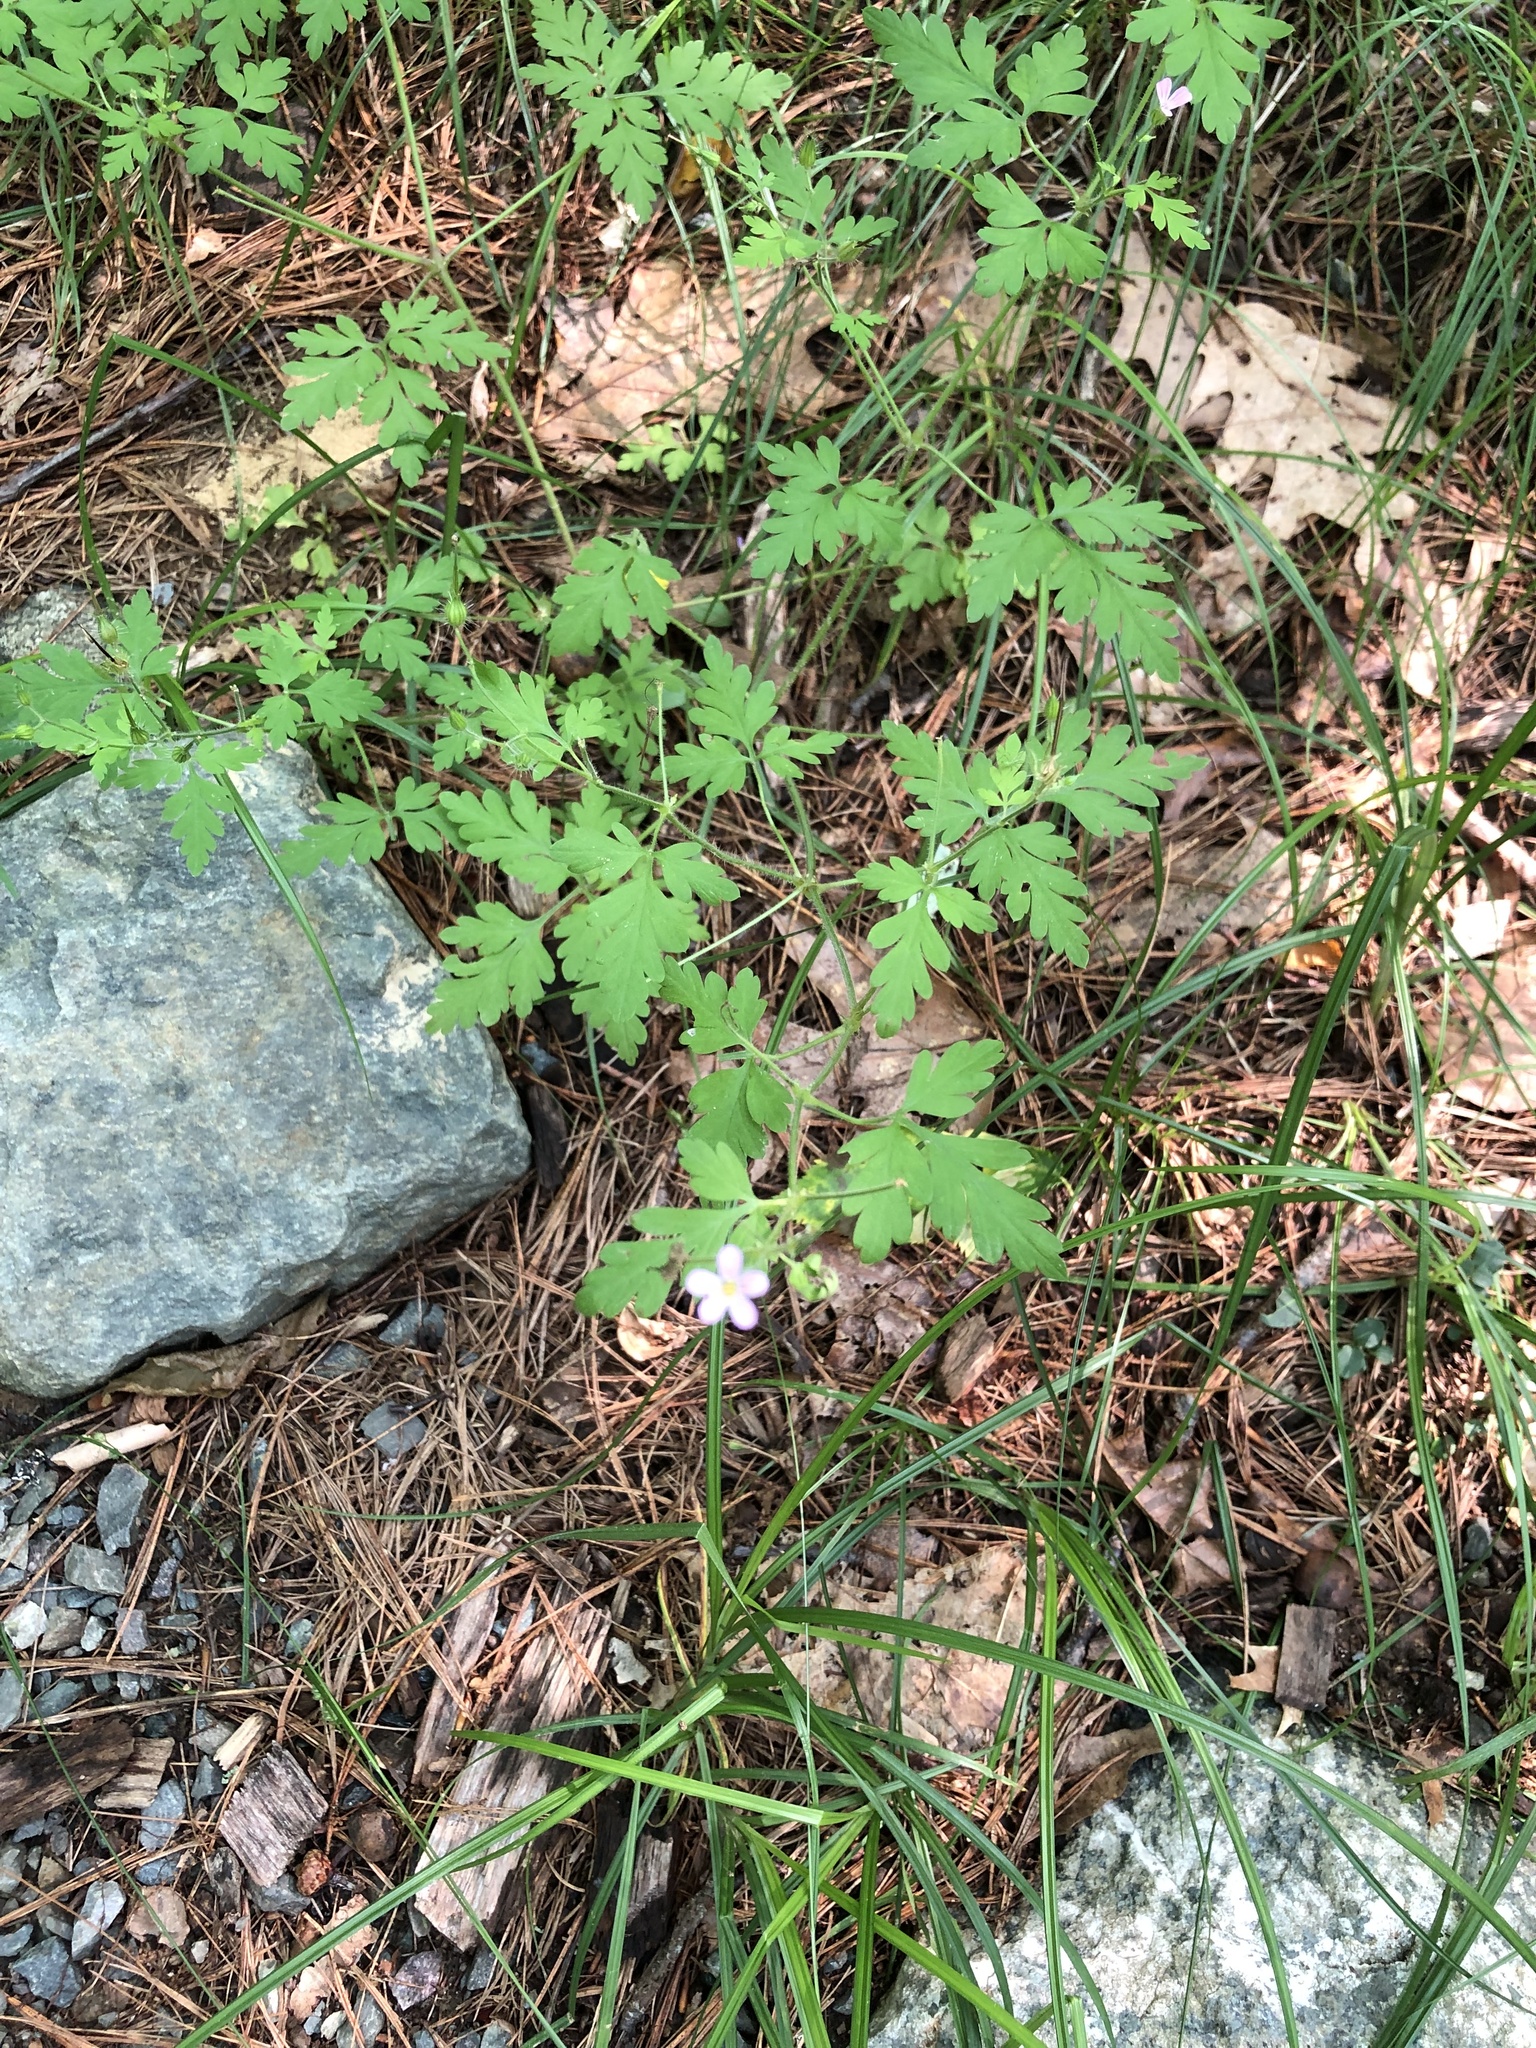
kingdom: Plantae
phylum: Tracheophyta
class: Magnoliopsida
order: Geraniales
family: Geraniaceae
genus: Geranium
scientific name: Geranium robertianum
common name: Herb-robert
